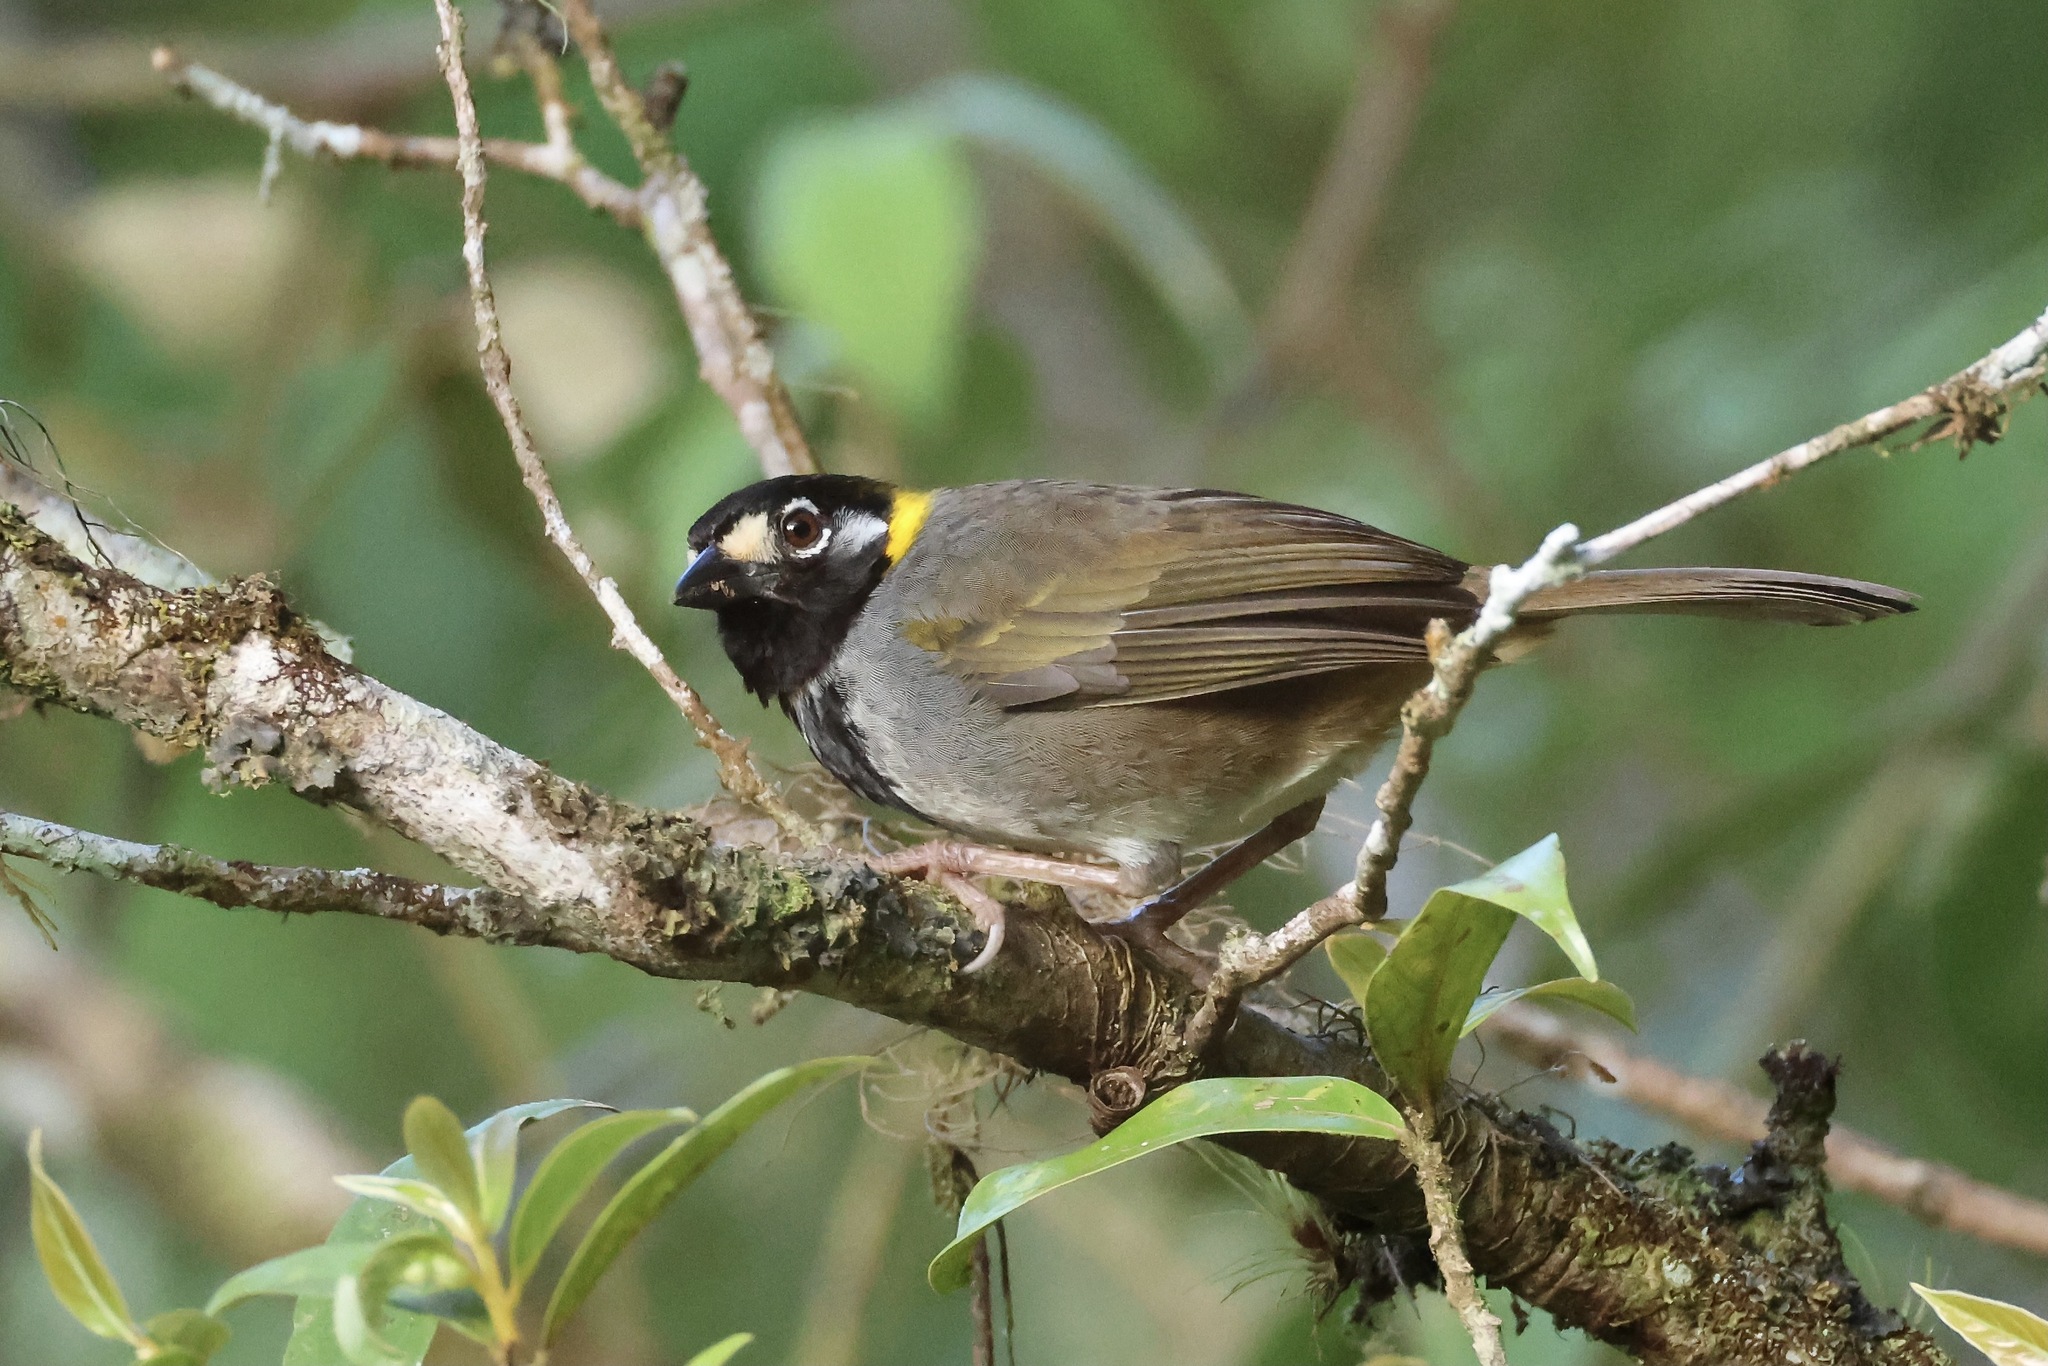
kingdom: Animalia
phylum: Chordata
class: Aves
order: Passeriformes
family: Passerellidae
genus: Melozone
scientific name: Melozone leucotis
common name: White-eared ground-sparrow
